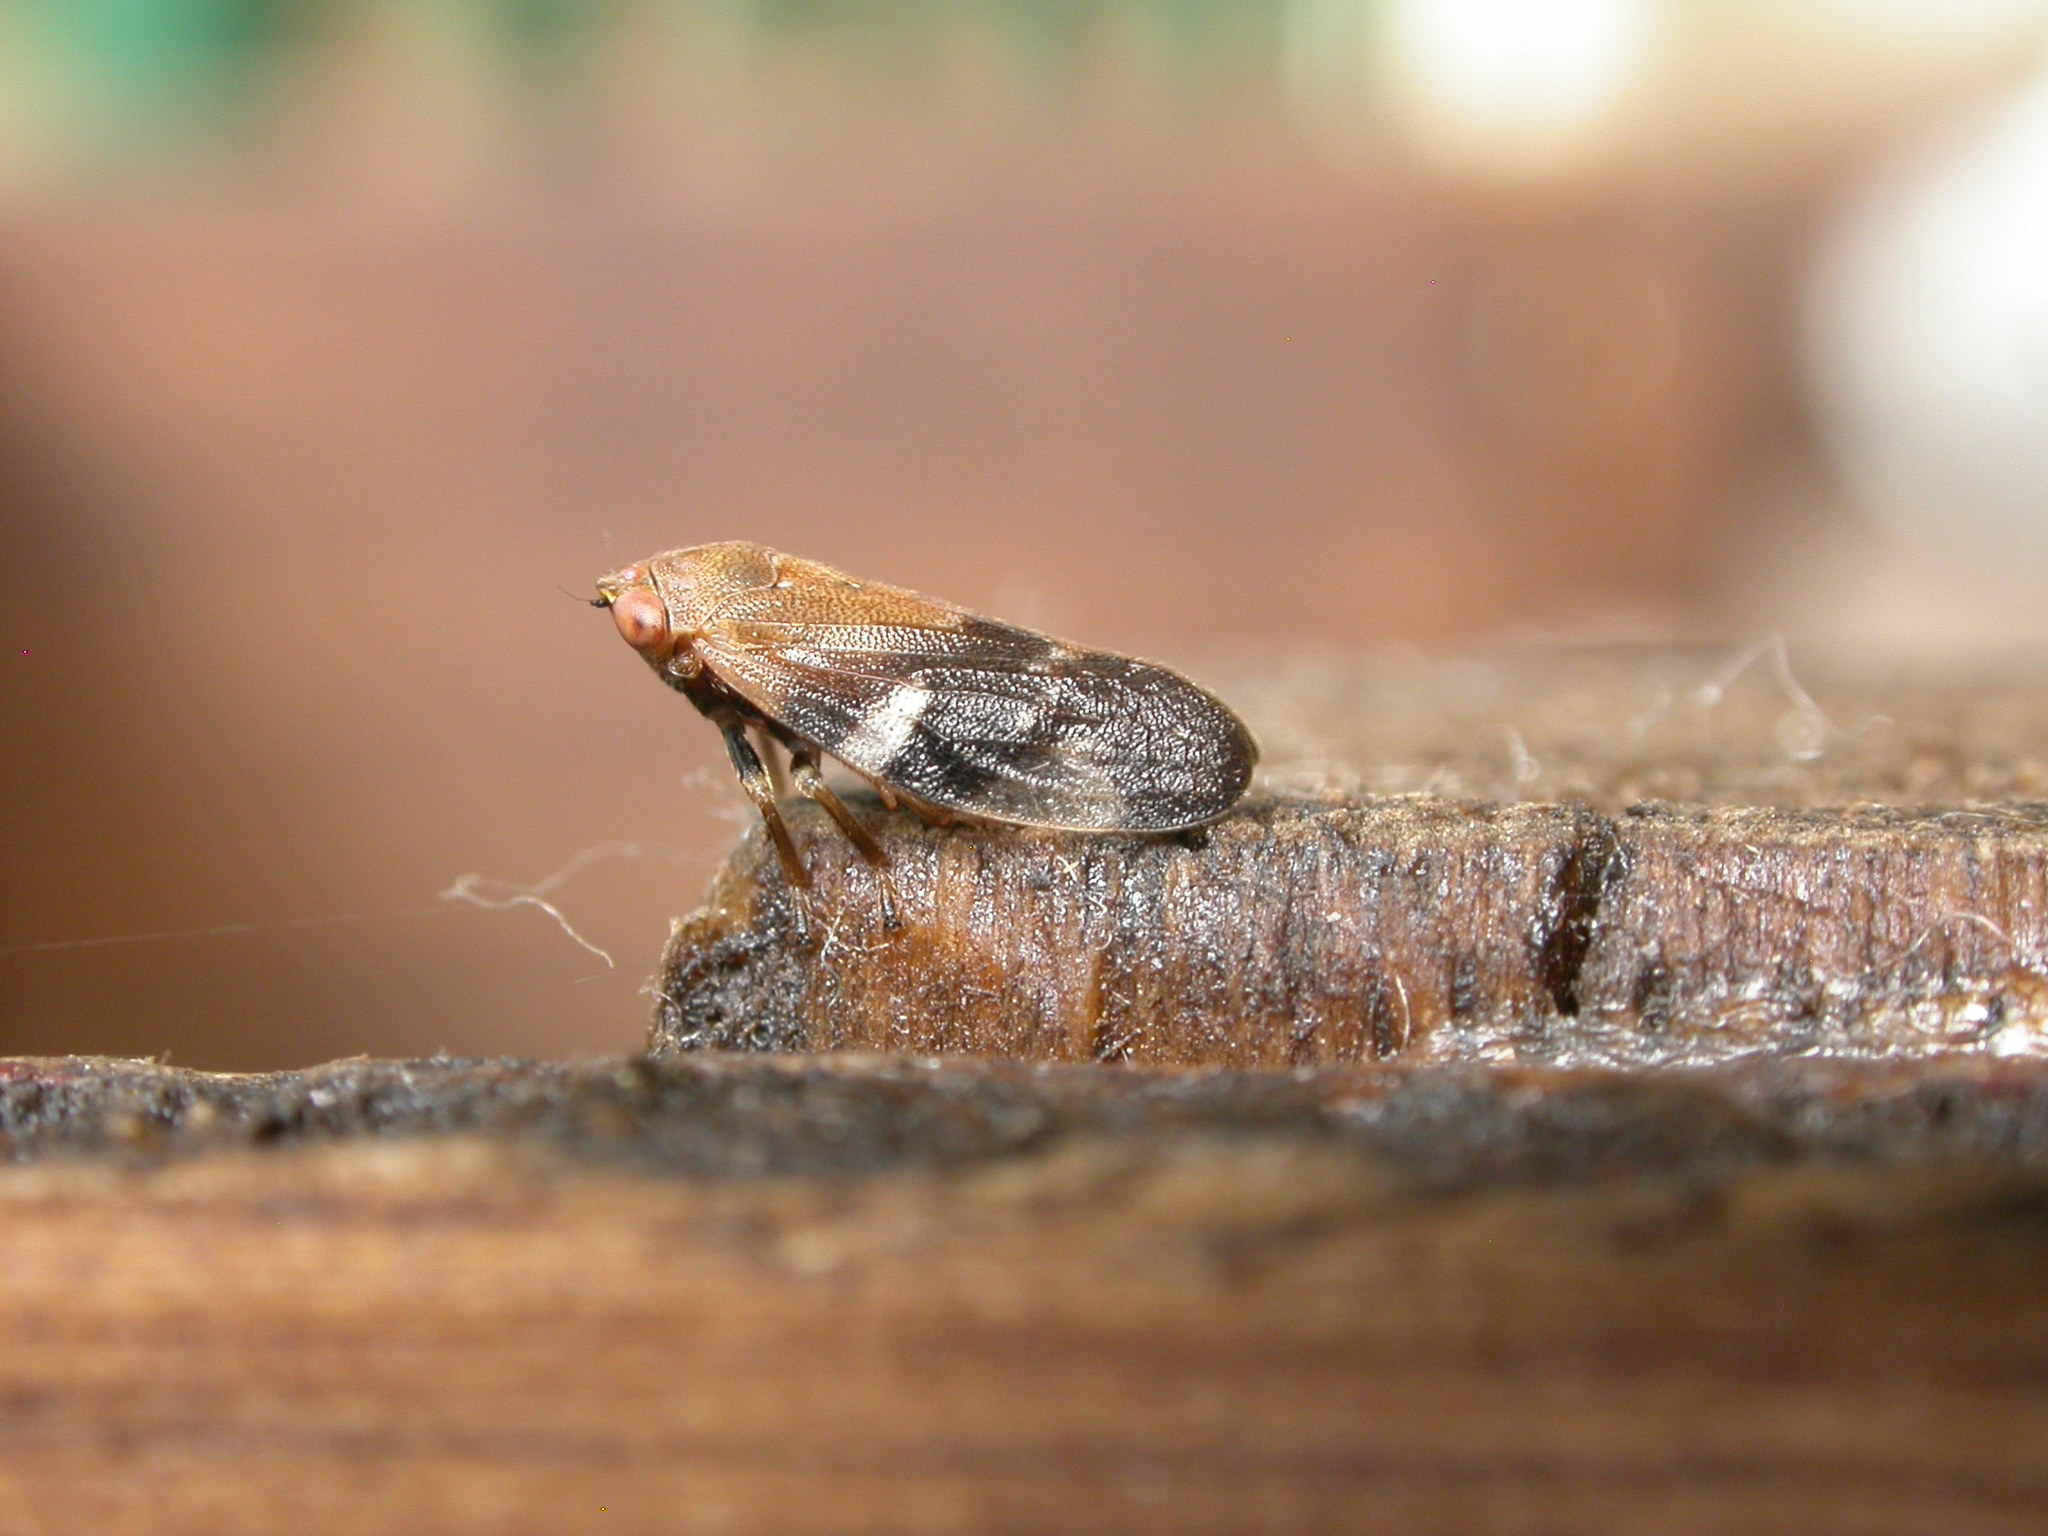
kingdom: Animalia
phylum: Arthropoda
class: Insecta
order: Hemiptera
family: Cercopidae
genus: Anyllis
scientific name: Anyllis leiala
